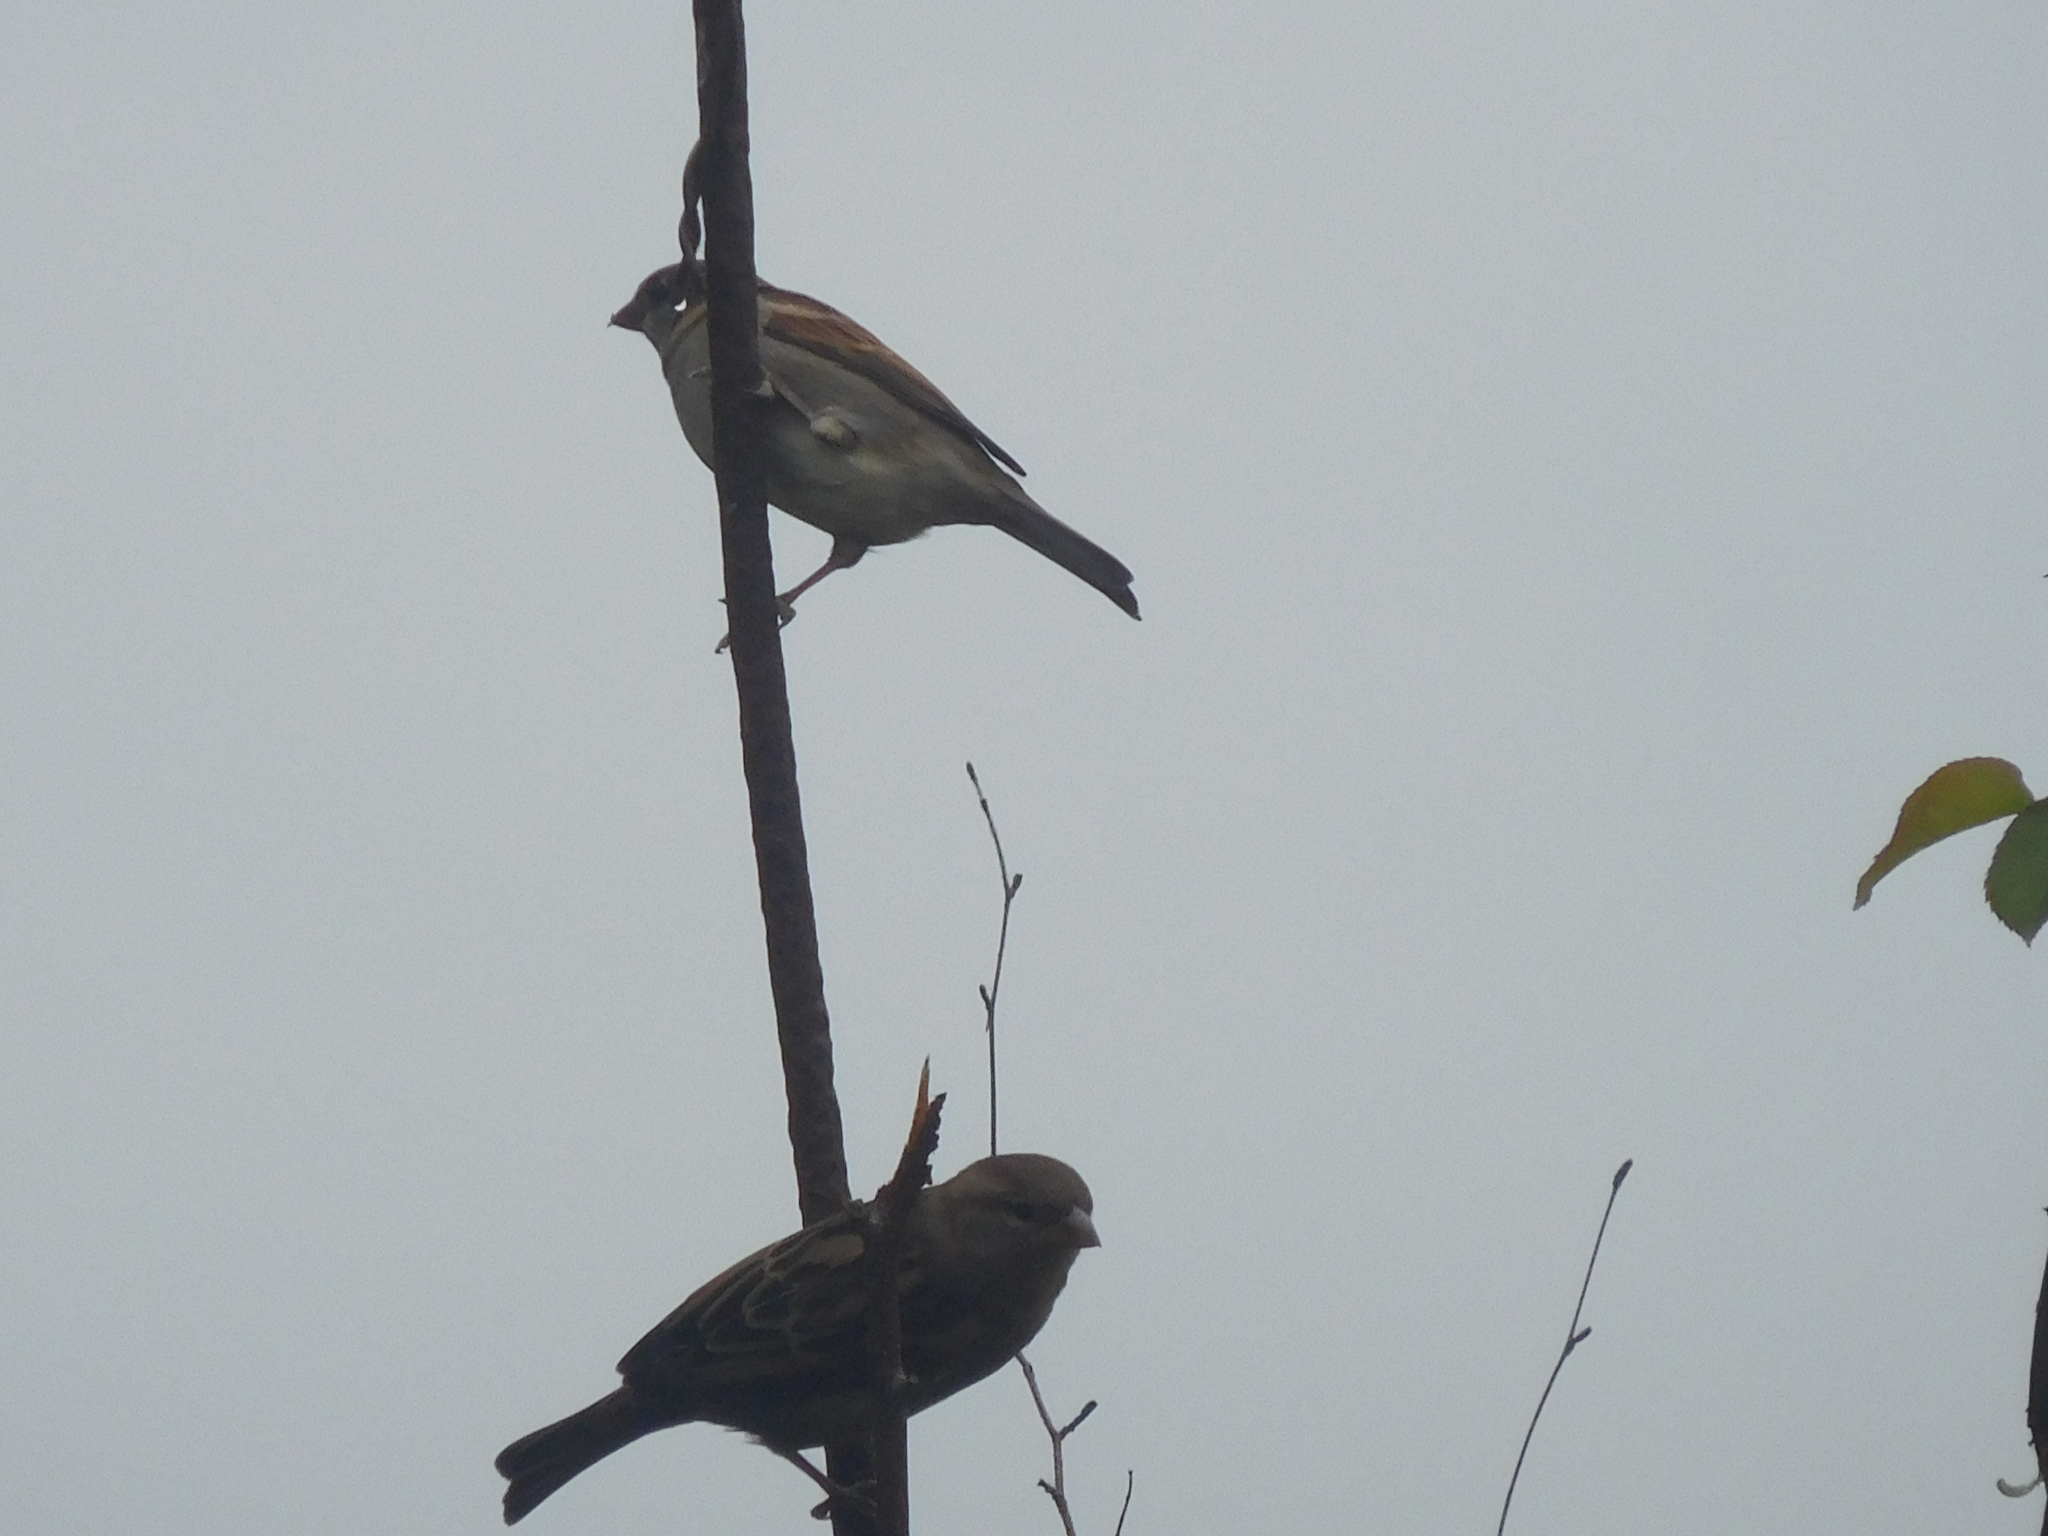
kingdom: Animalia
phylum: Chordata
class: Aves
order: Passeriformes
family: Passeridae
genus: Passer
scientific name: Passer domesticus
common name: House sparrow
